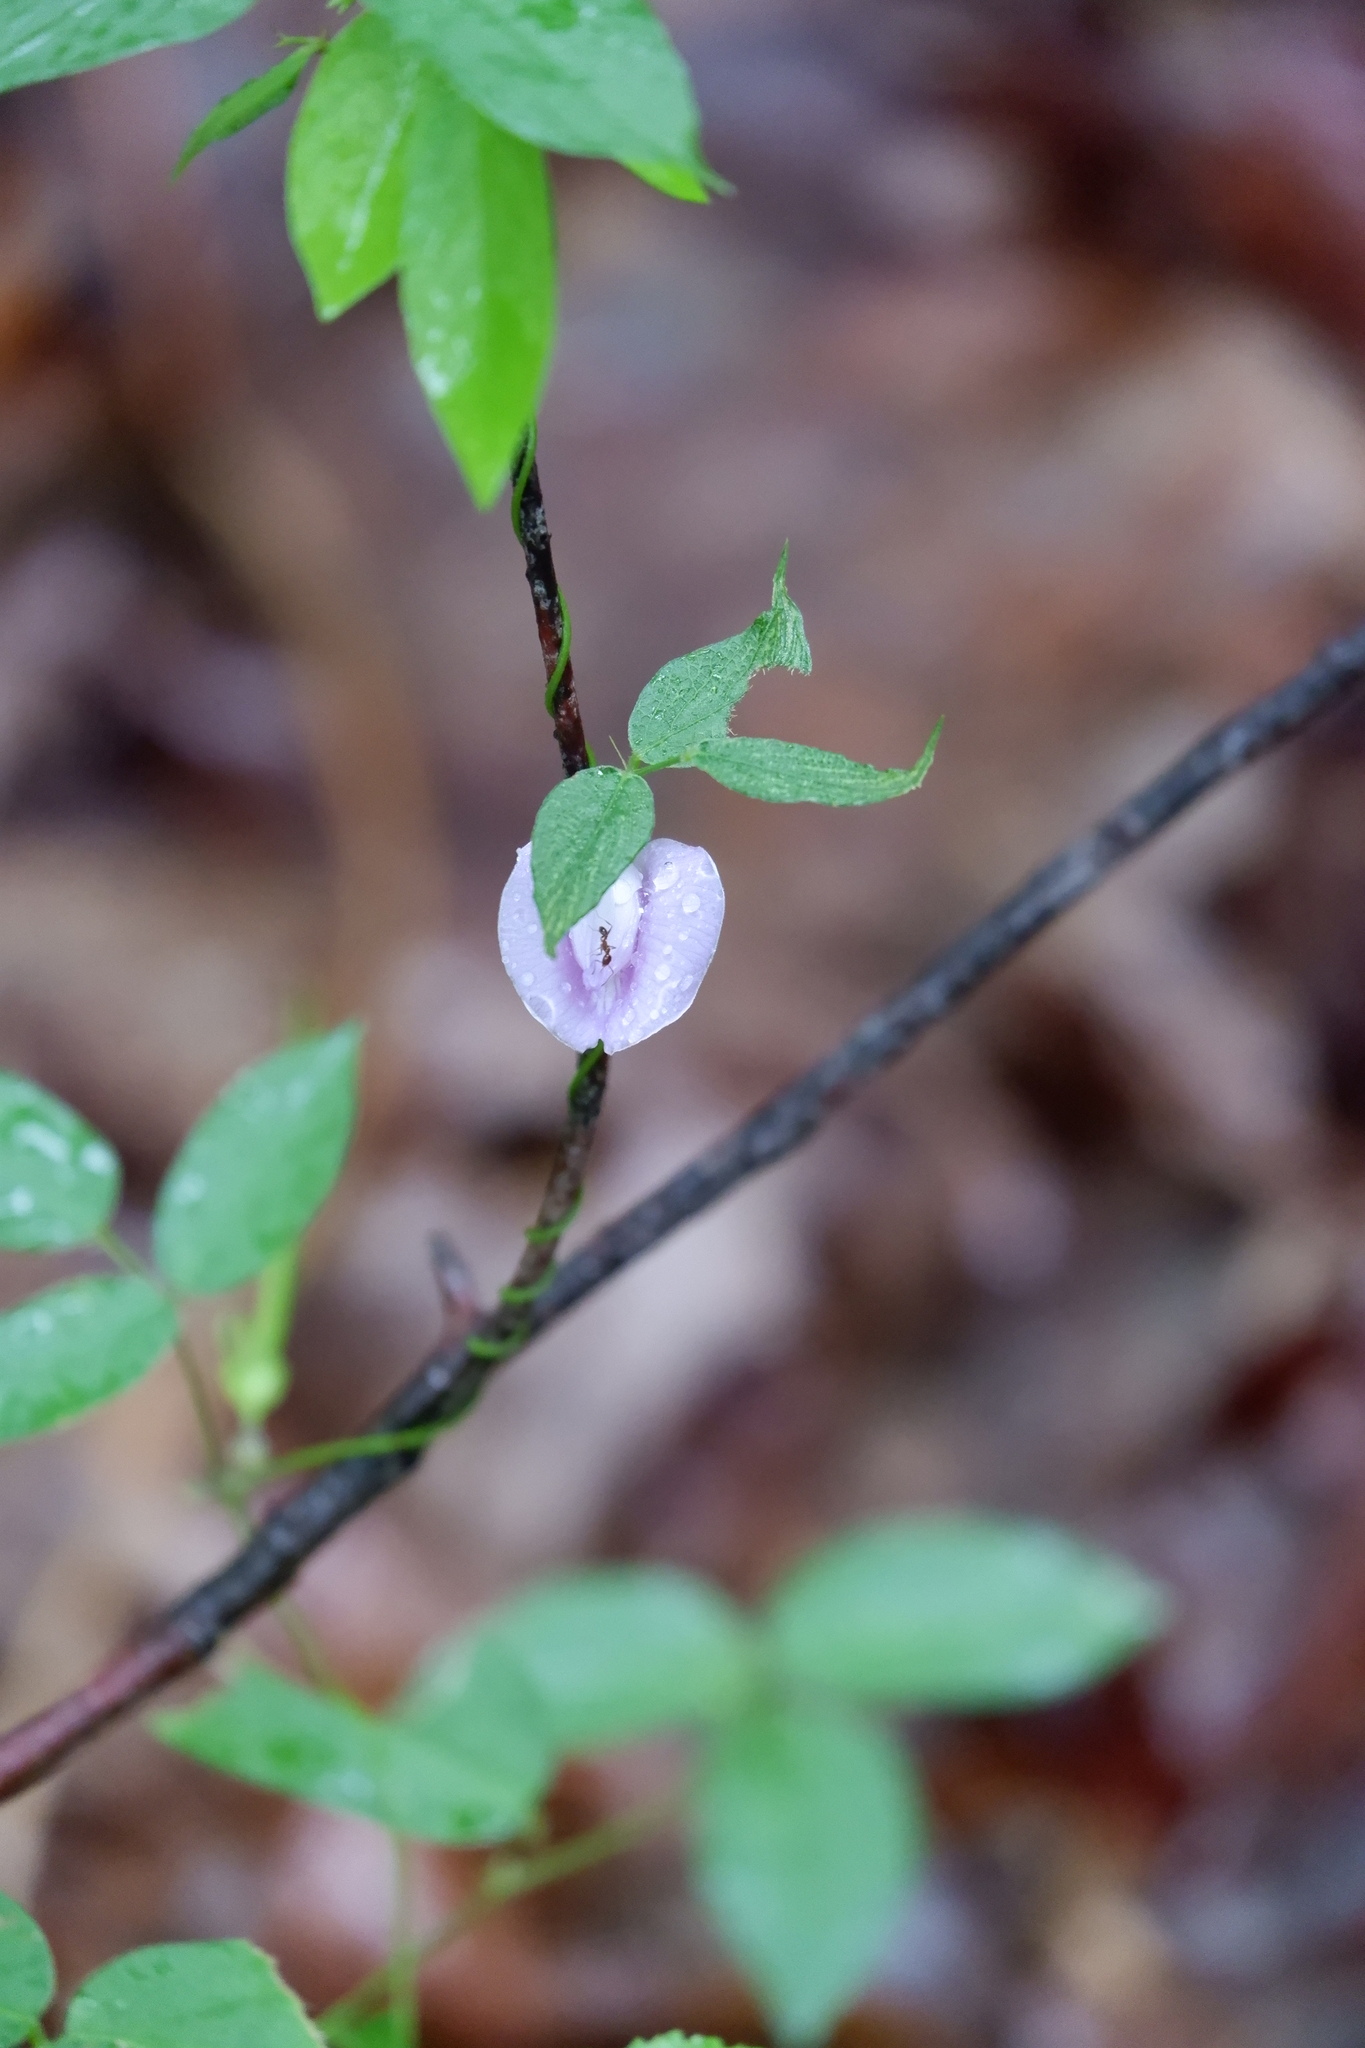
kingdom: Plantae
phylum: Tracheophyta
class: Magnoliopsida
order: Fabales
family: Fabaceae
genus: Centrosema
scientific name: Centrosema virginianum
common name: Butterfly-pea
